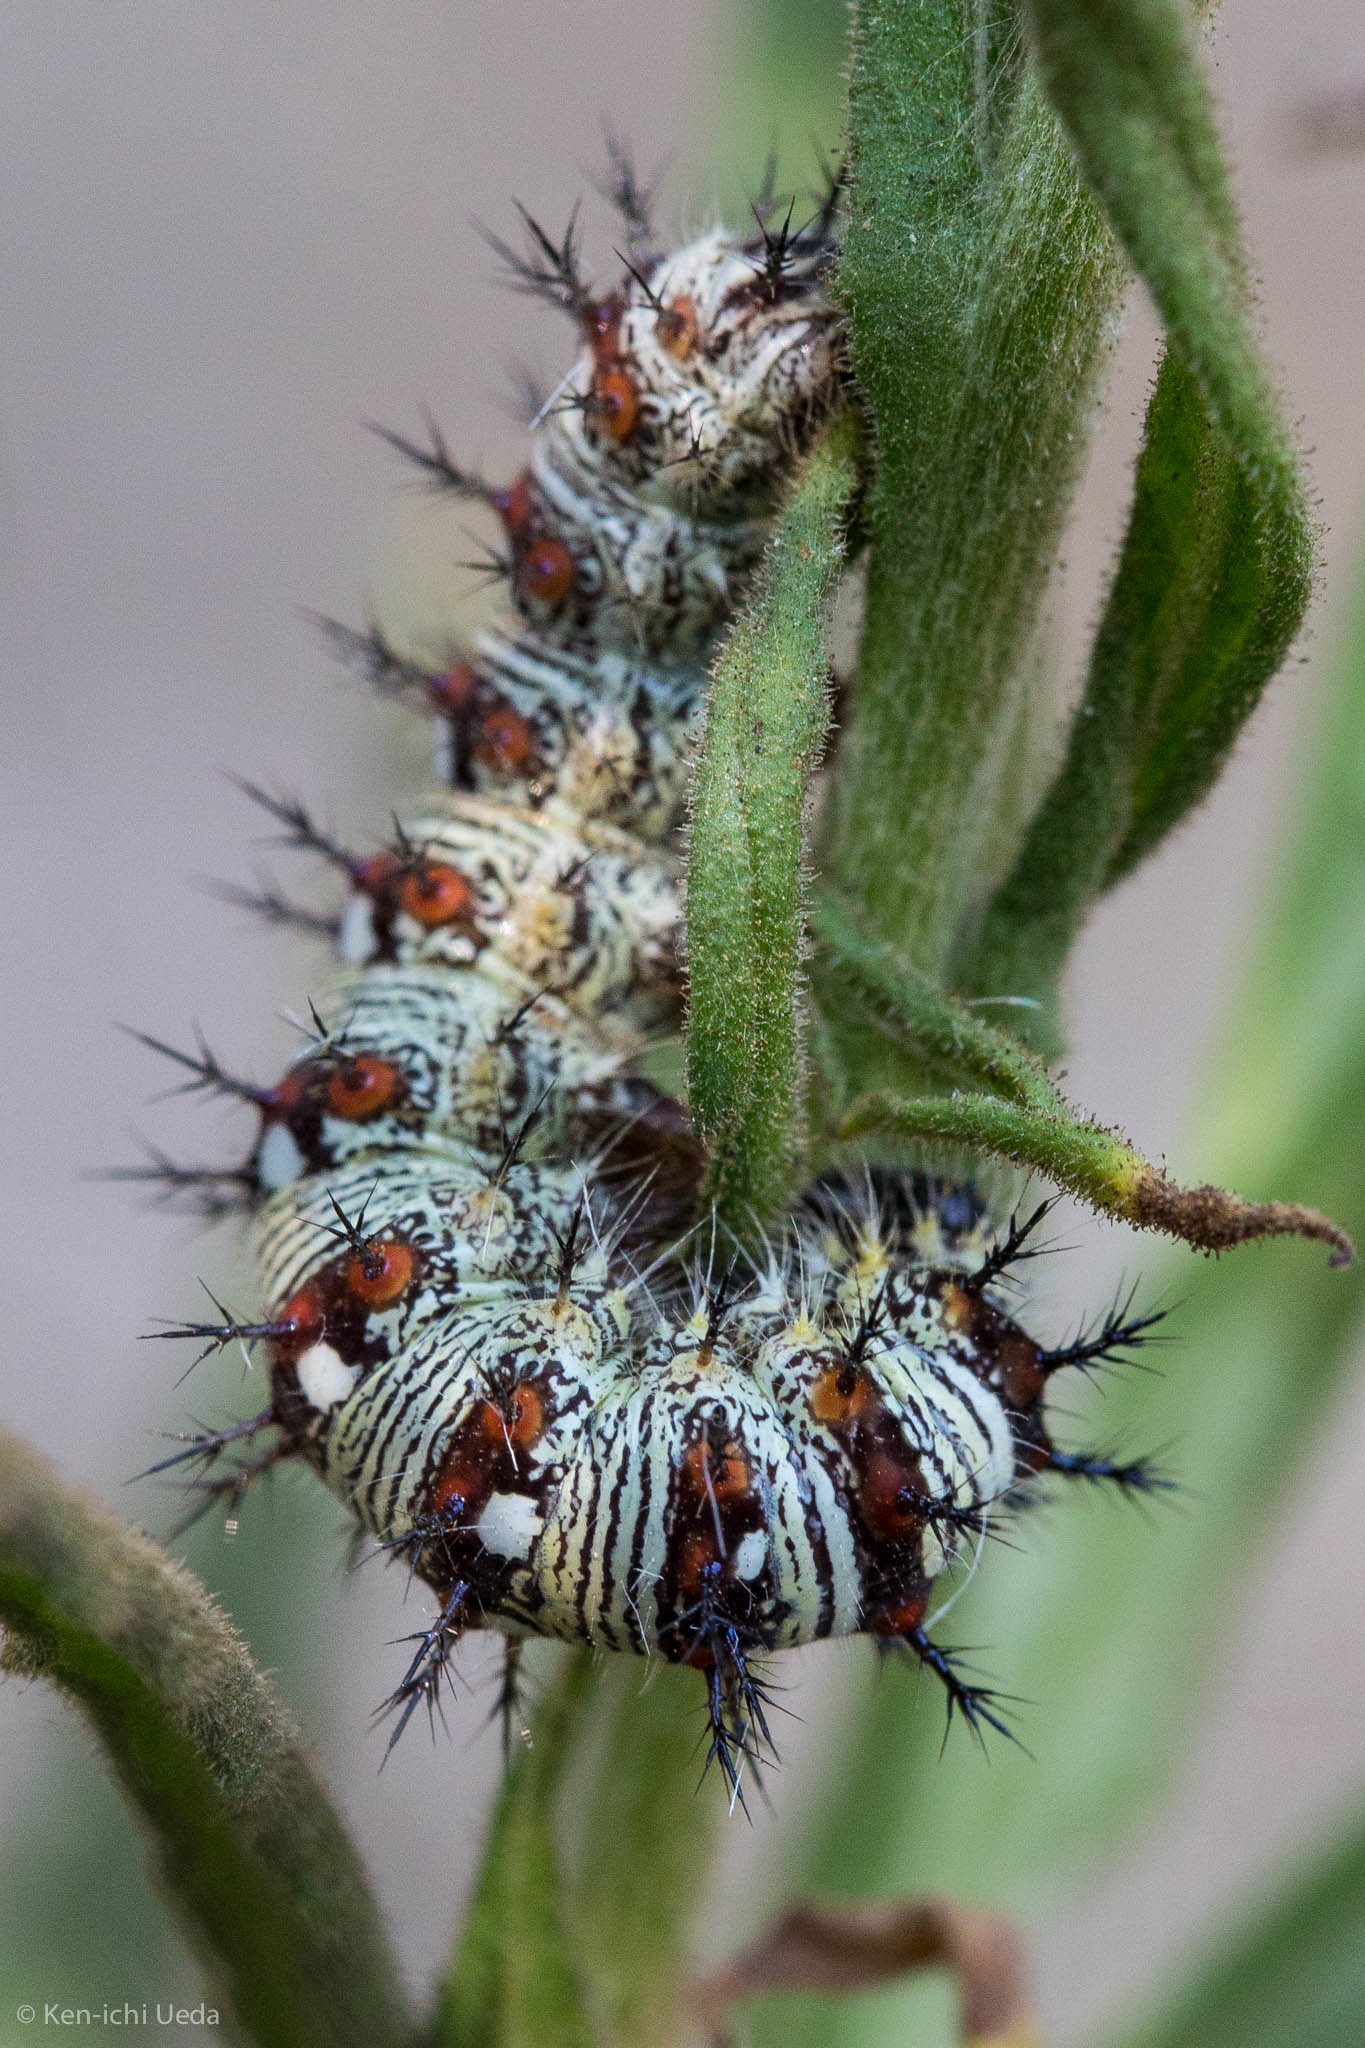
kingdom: Animalia
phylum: Arthropoda
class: Insecta
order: Lepidoptera
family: Nymphalidae
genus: Vanessa
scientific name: Vanessa virginiensis
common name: American lady
